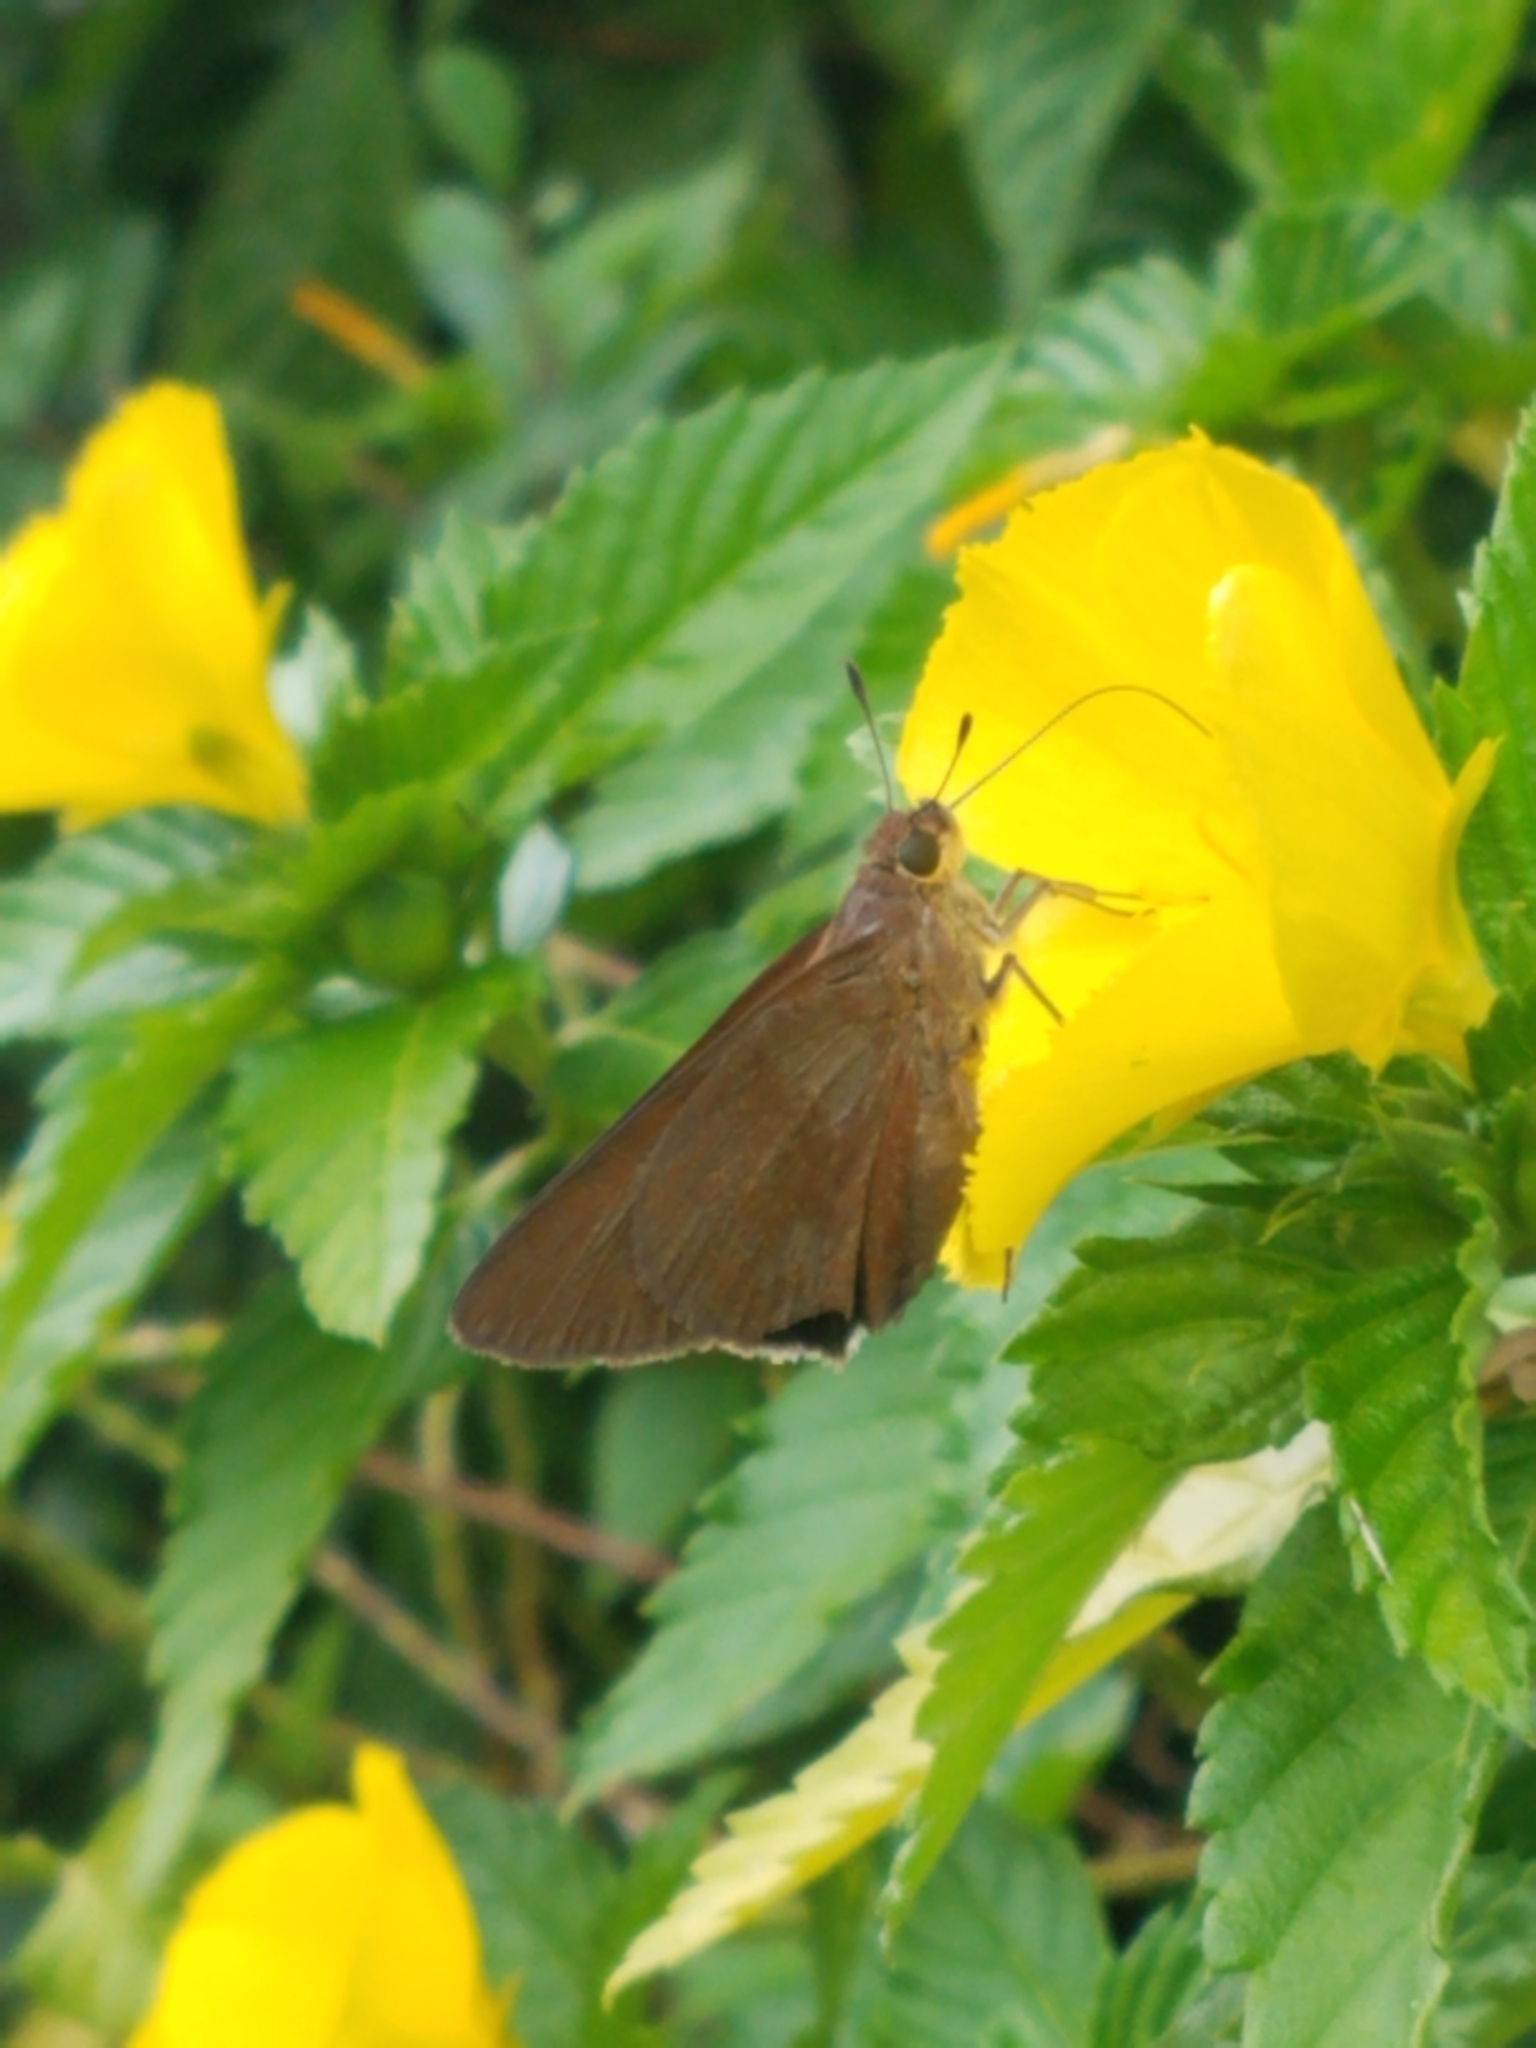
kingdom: Animalia
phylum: Arthropoda
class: Insecta
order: Lepidoptera
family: Hesperiidae
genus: Asbolis
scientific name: Asbolis capucinus
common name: Monk skipper
